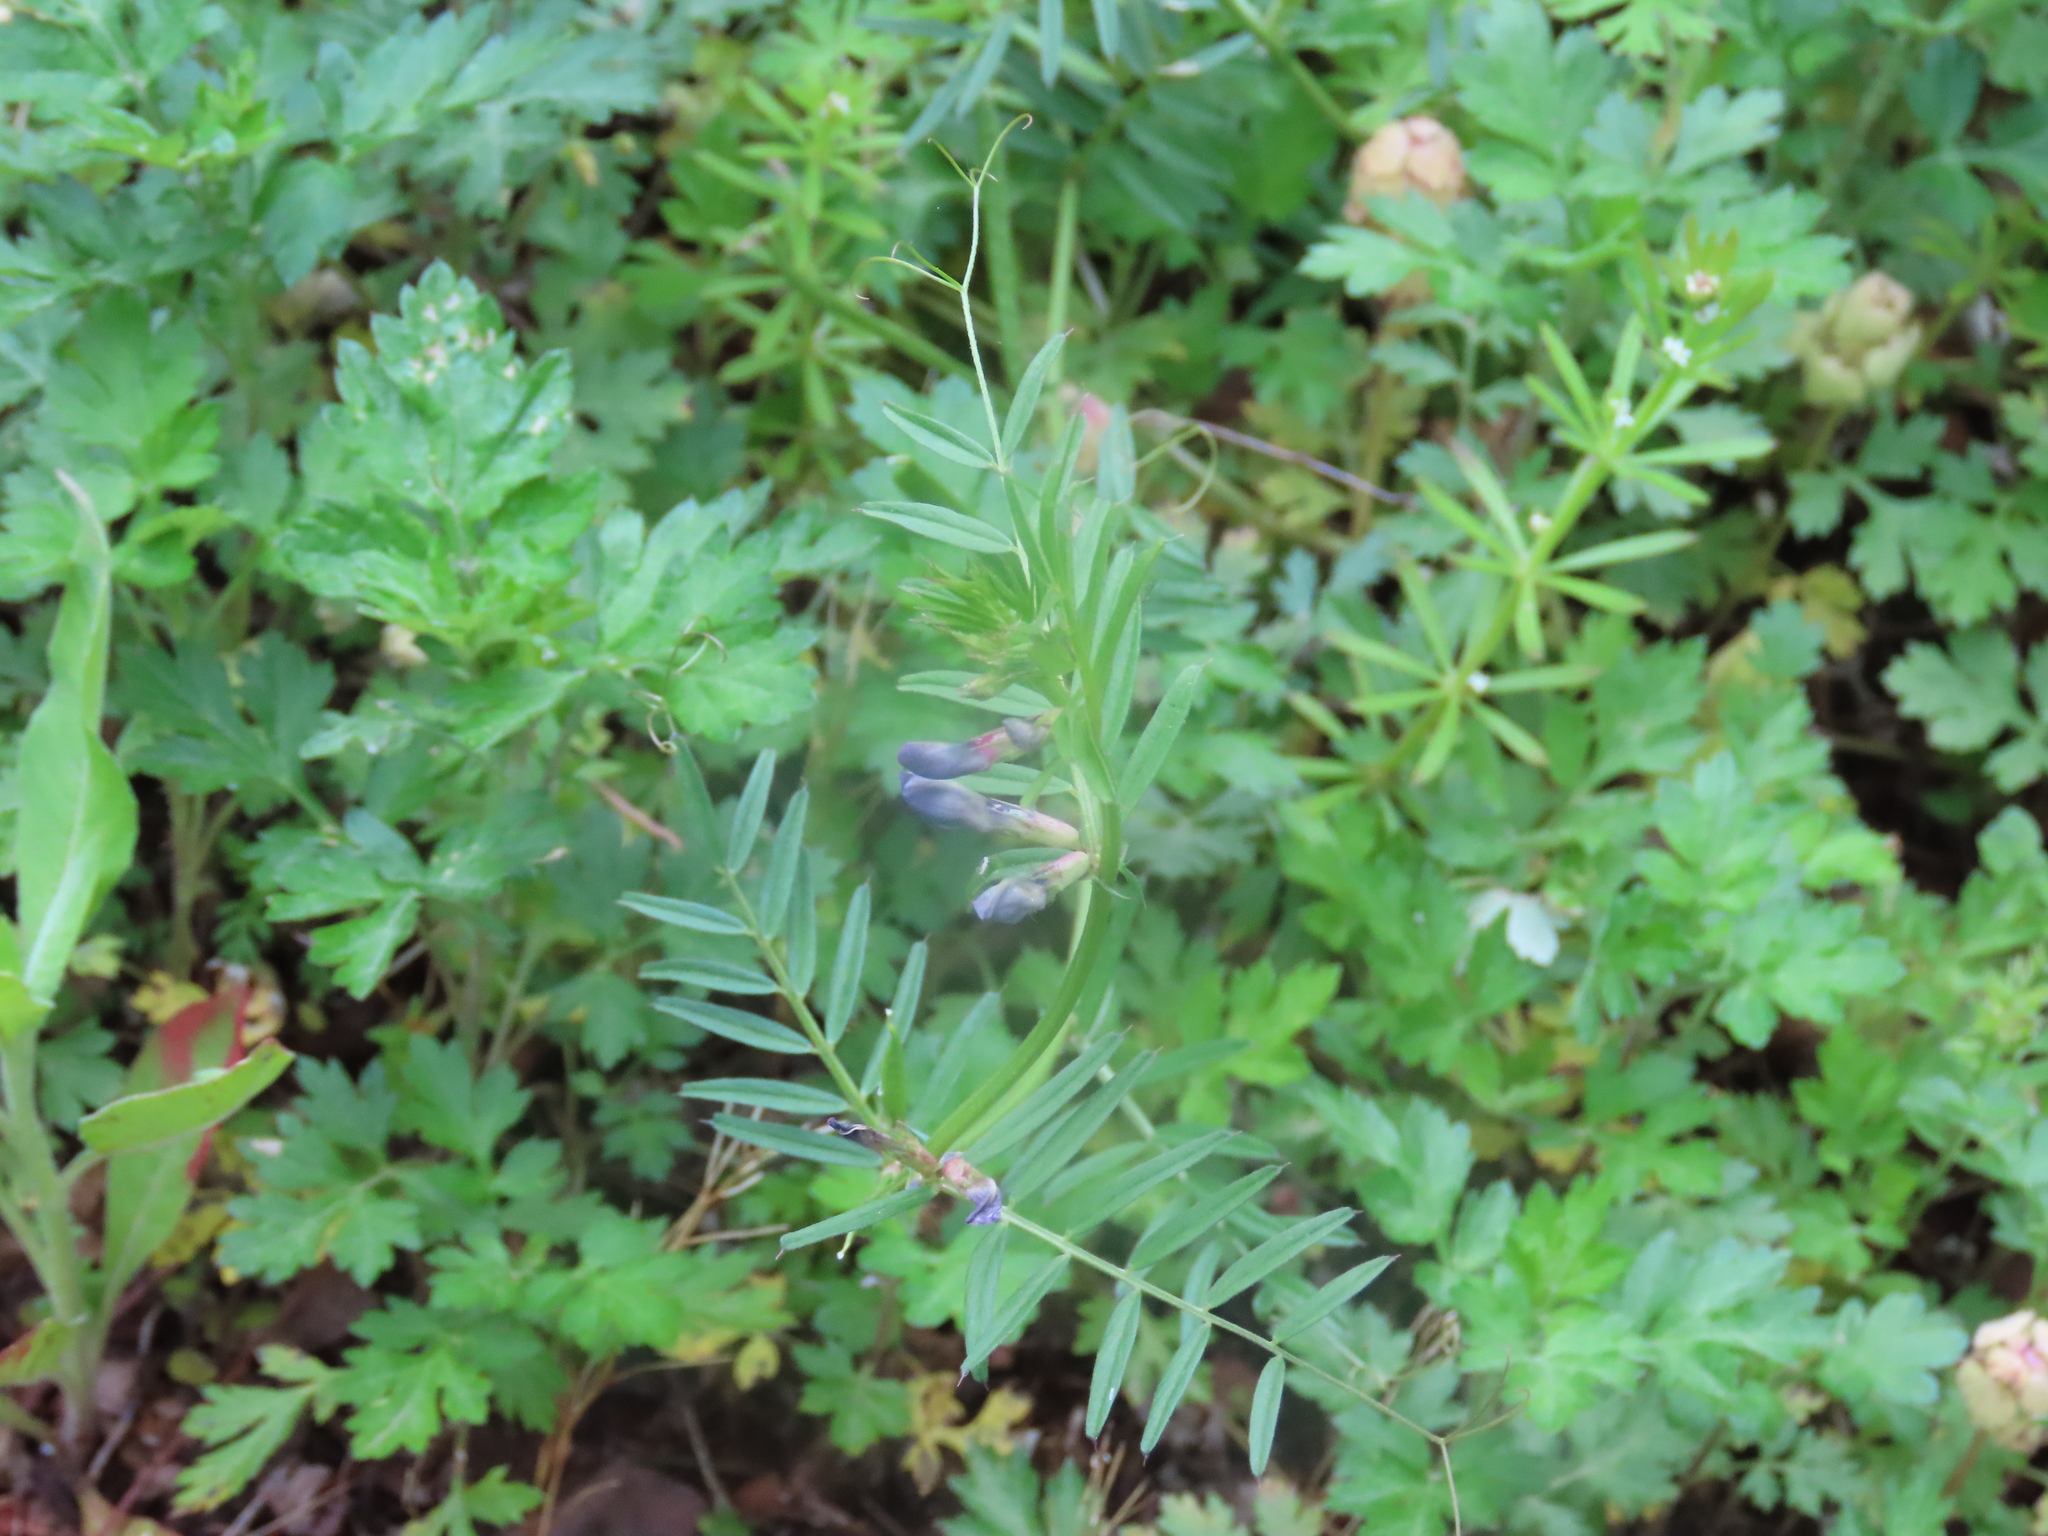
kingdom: Plantae
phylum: Tracheophyta
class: Magnoliopsida
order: Fabales
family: Fabaceae
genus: Vicia
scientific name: Vicia sativa
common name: Garden vetch
